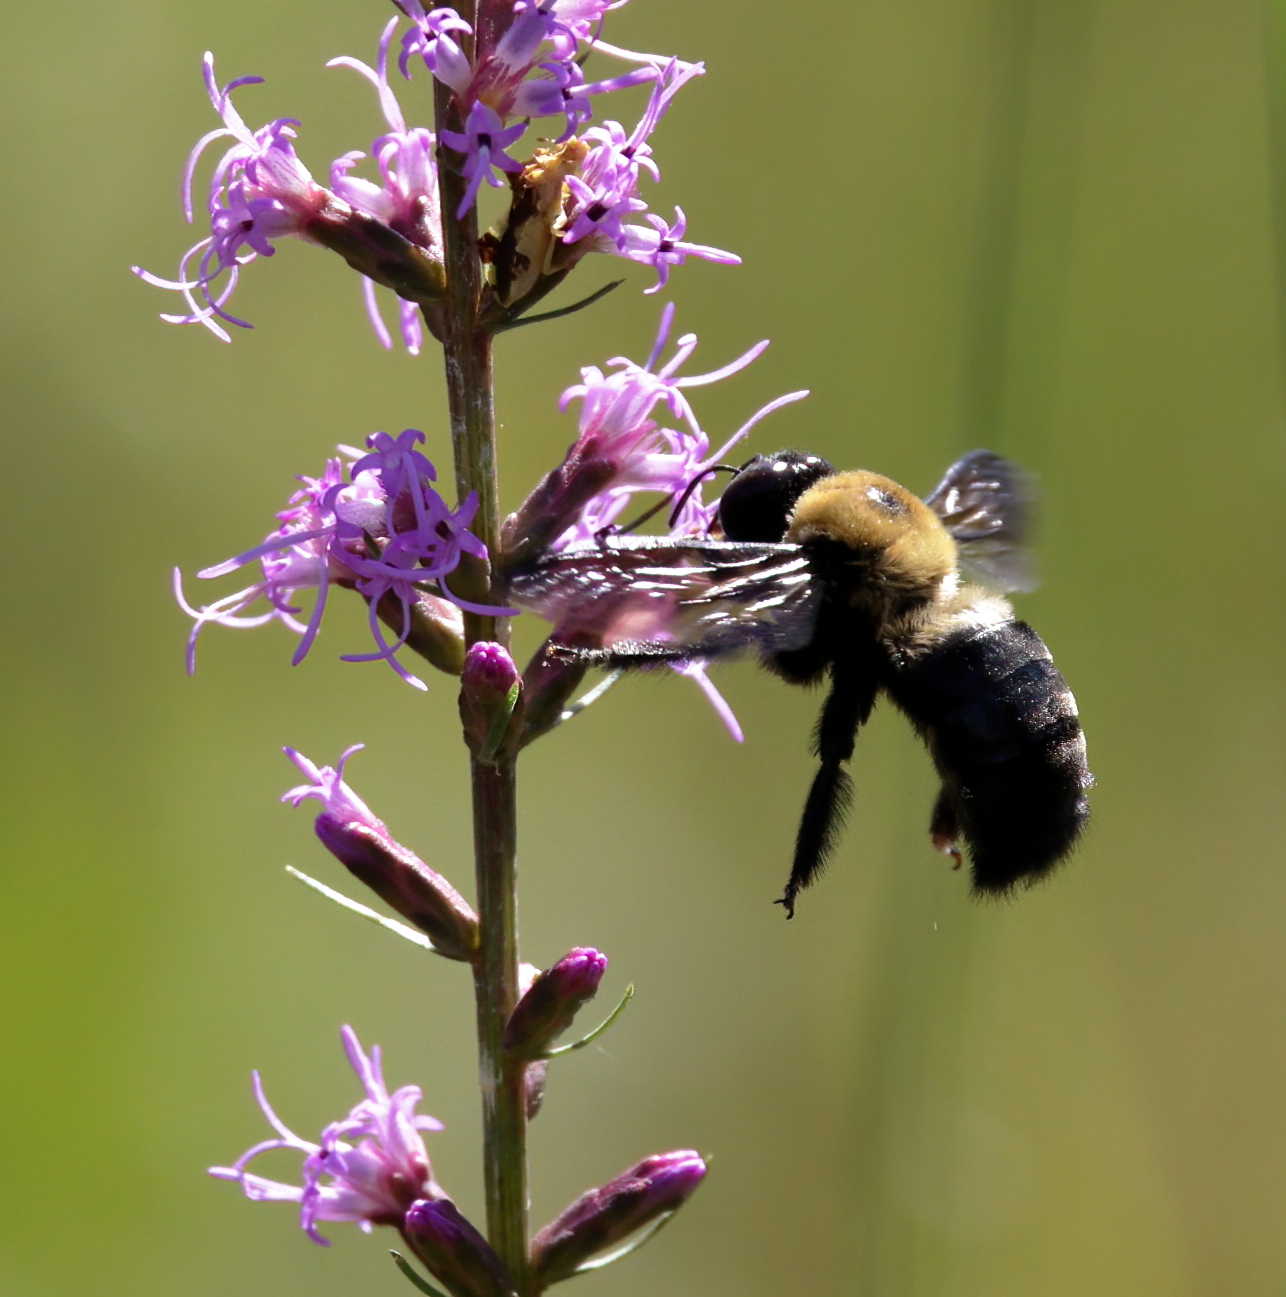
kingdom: Animalia
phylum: Arthropoda
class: Insecta
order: Hymenoptera
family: Apidae
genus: Xylocopa
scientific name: Xylocopa virginica
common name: Carpenter bee
